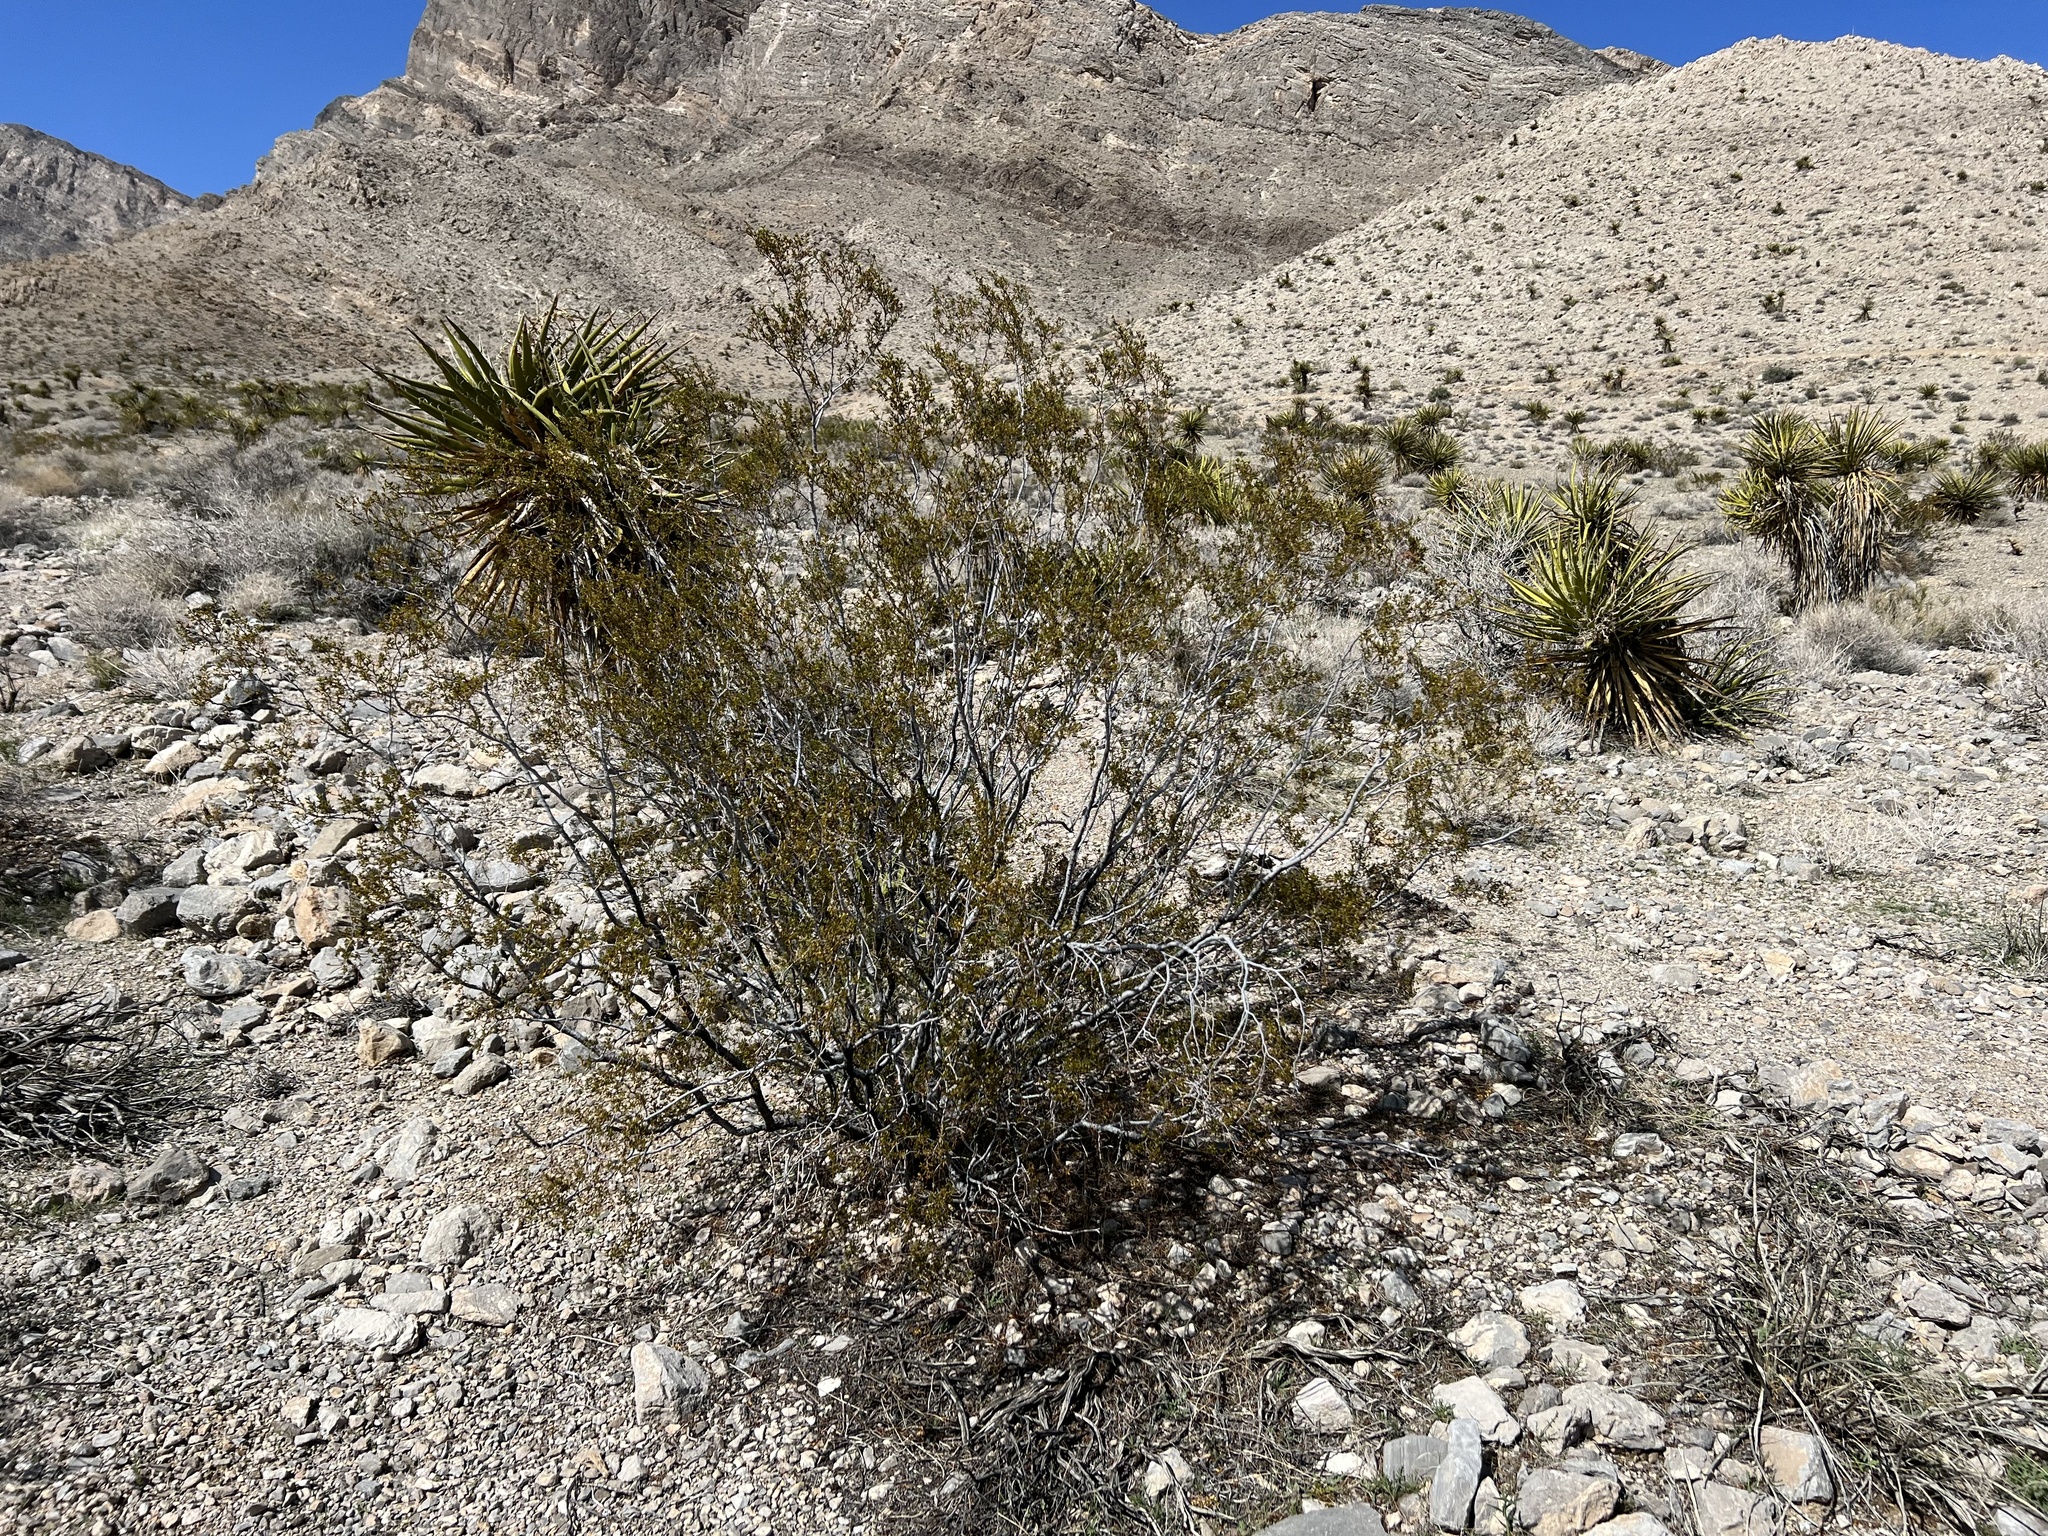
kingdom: Plantae
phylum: Tracheophyta
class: Magnoliopsida
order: Zygophyllales
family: Zygophyllaceae
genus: Larrea
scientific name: Larrea tridentata
